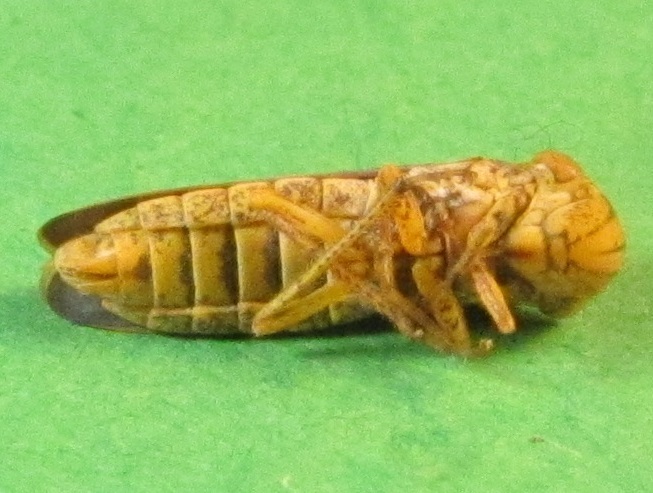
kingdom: Animalia
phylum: Arthropoda
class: Insecta
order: Hemiptera
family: Cicadellidae
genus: Oncometopia
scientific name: Oncometopia orbona
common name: Broad-headed sharpshooter
